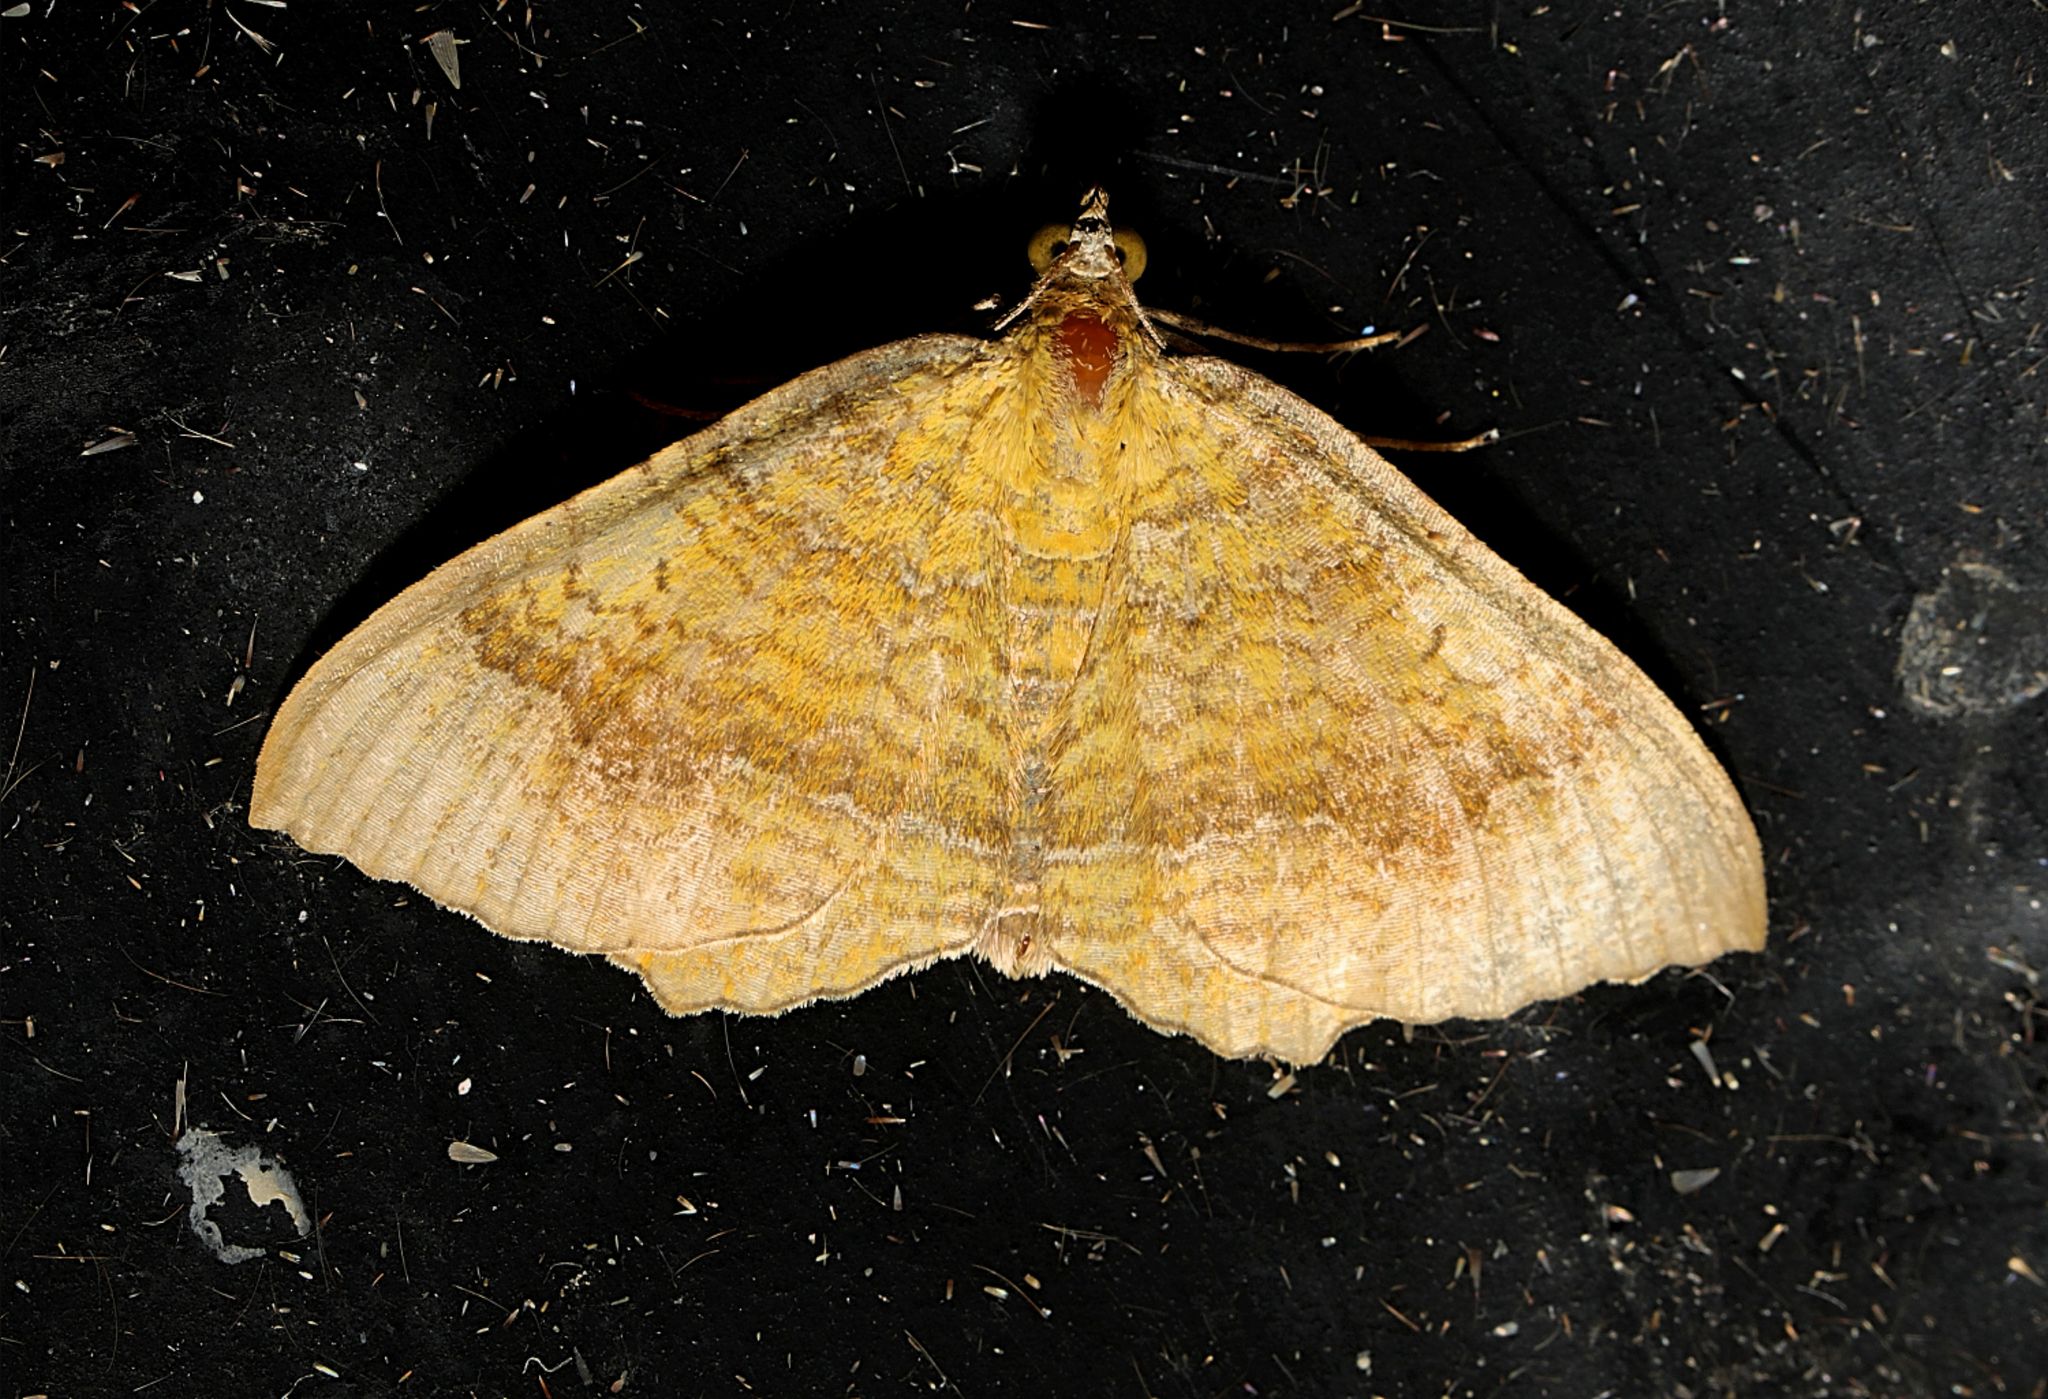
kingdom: Animalia
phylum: Arthropoda
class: Insecta
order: Lepidoptera
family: Geometridae
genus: Camptogramma
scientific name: Camptogramma bilineata
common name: Yellow shell
